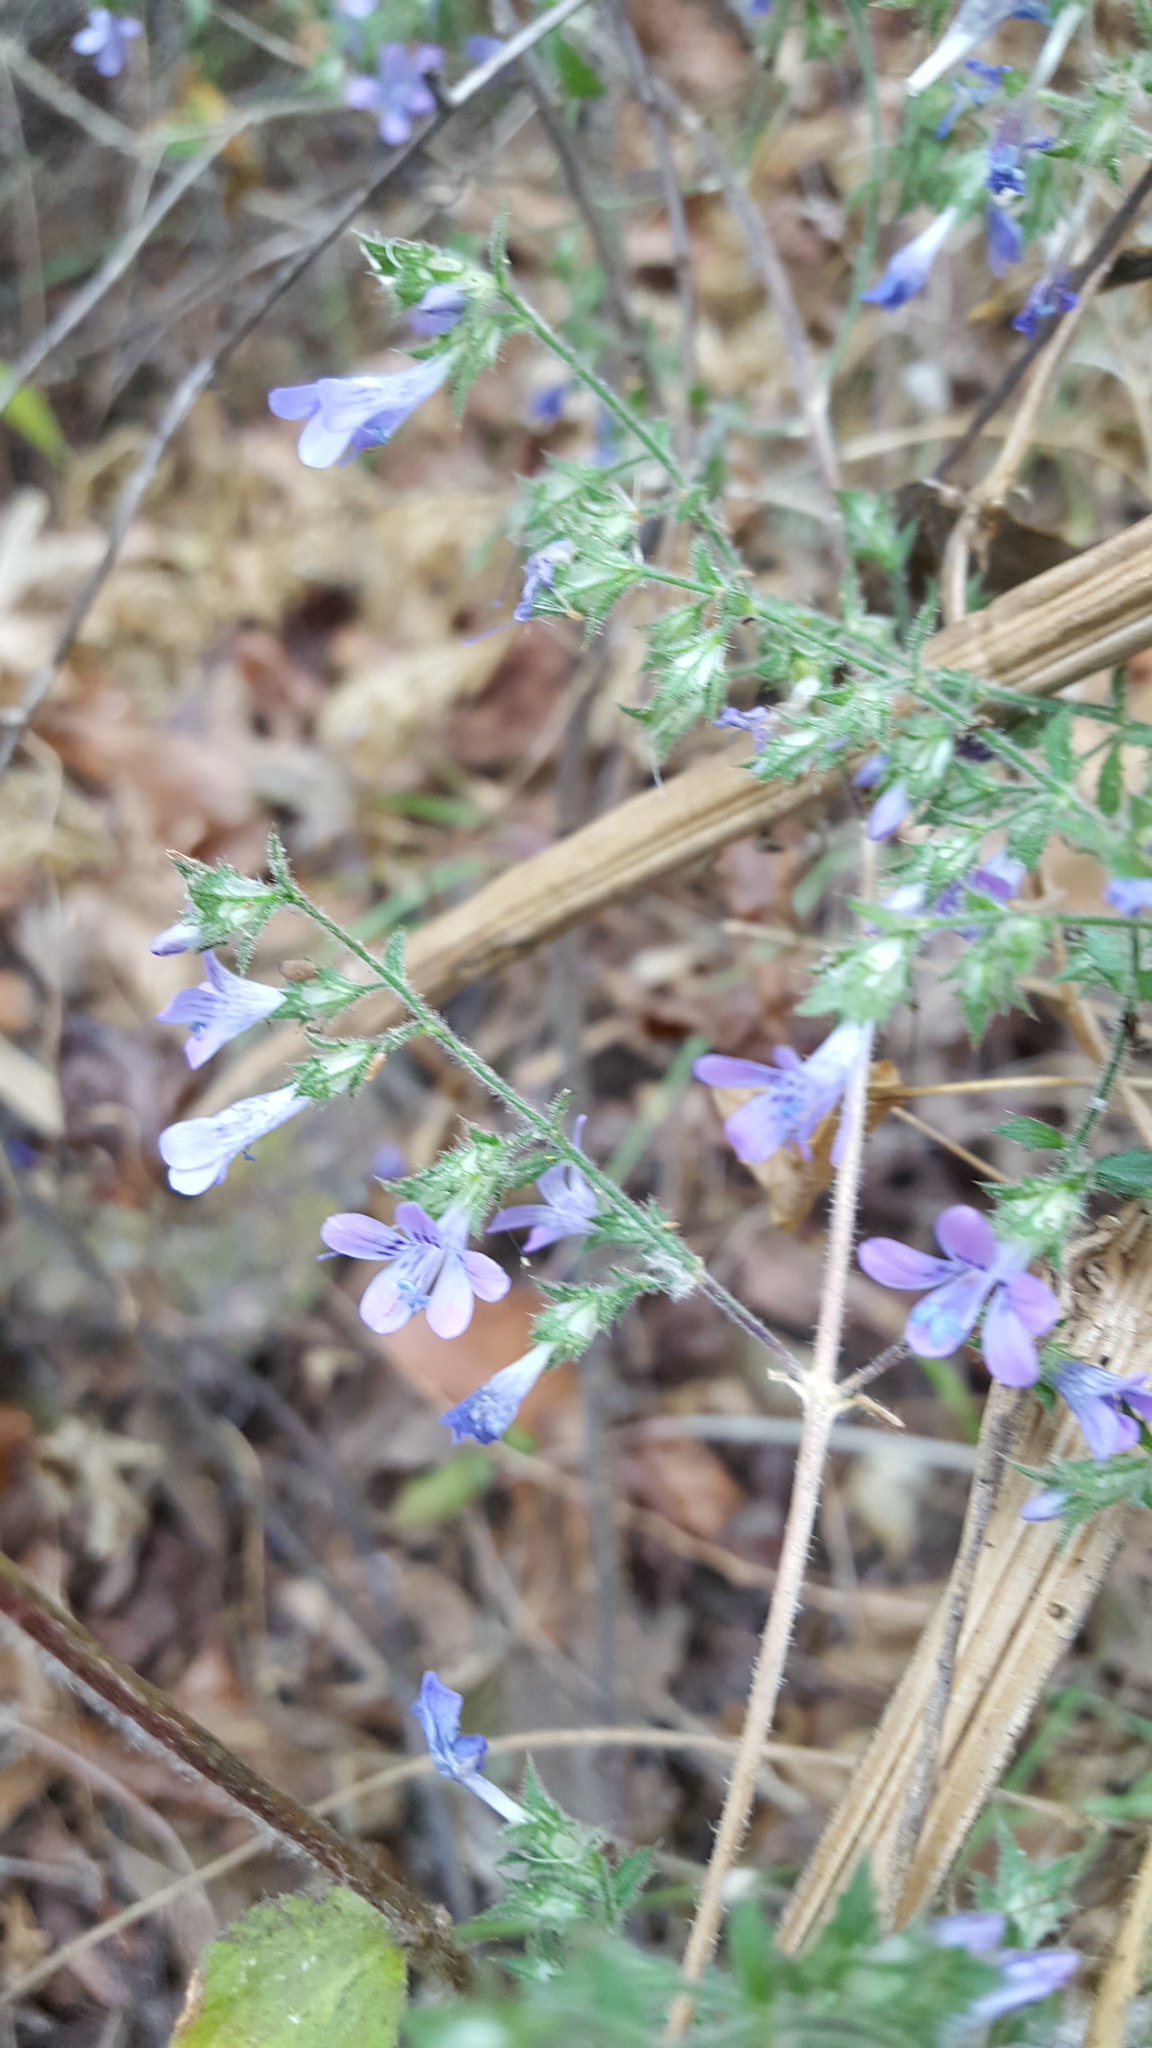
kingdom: Plantae
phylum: Tracheophyta
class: Magnoliopsida
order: Ericales
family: Polemoniaceae
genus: Loeselia
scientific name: Loeselia rupestris
